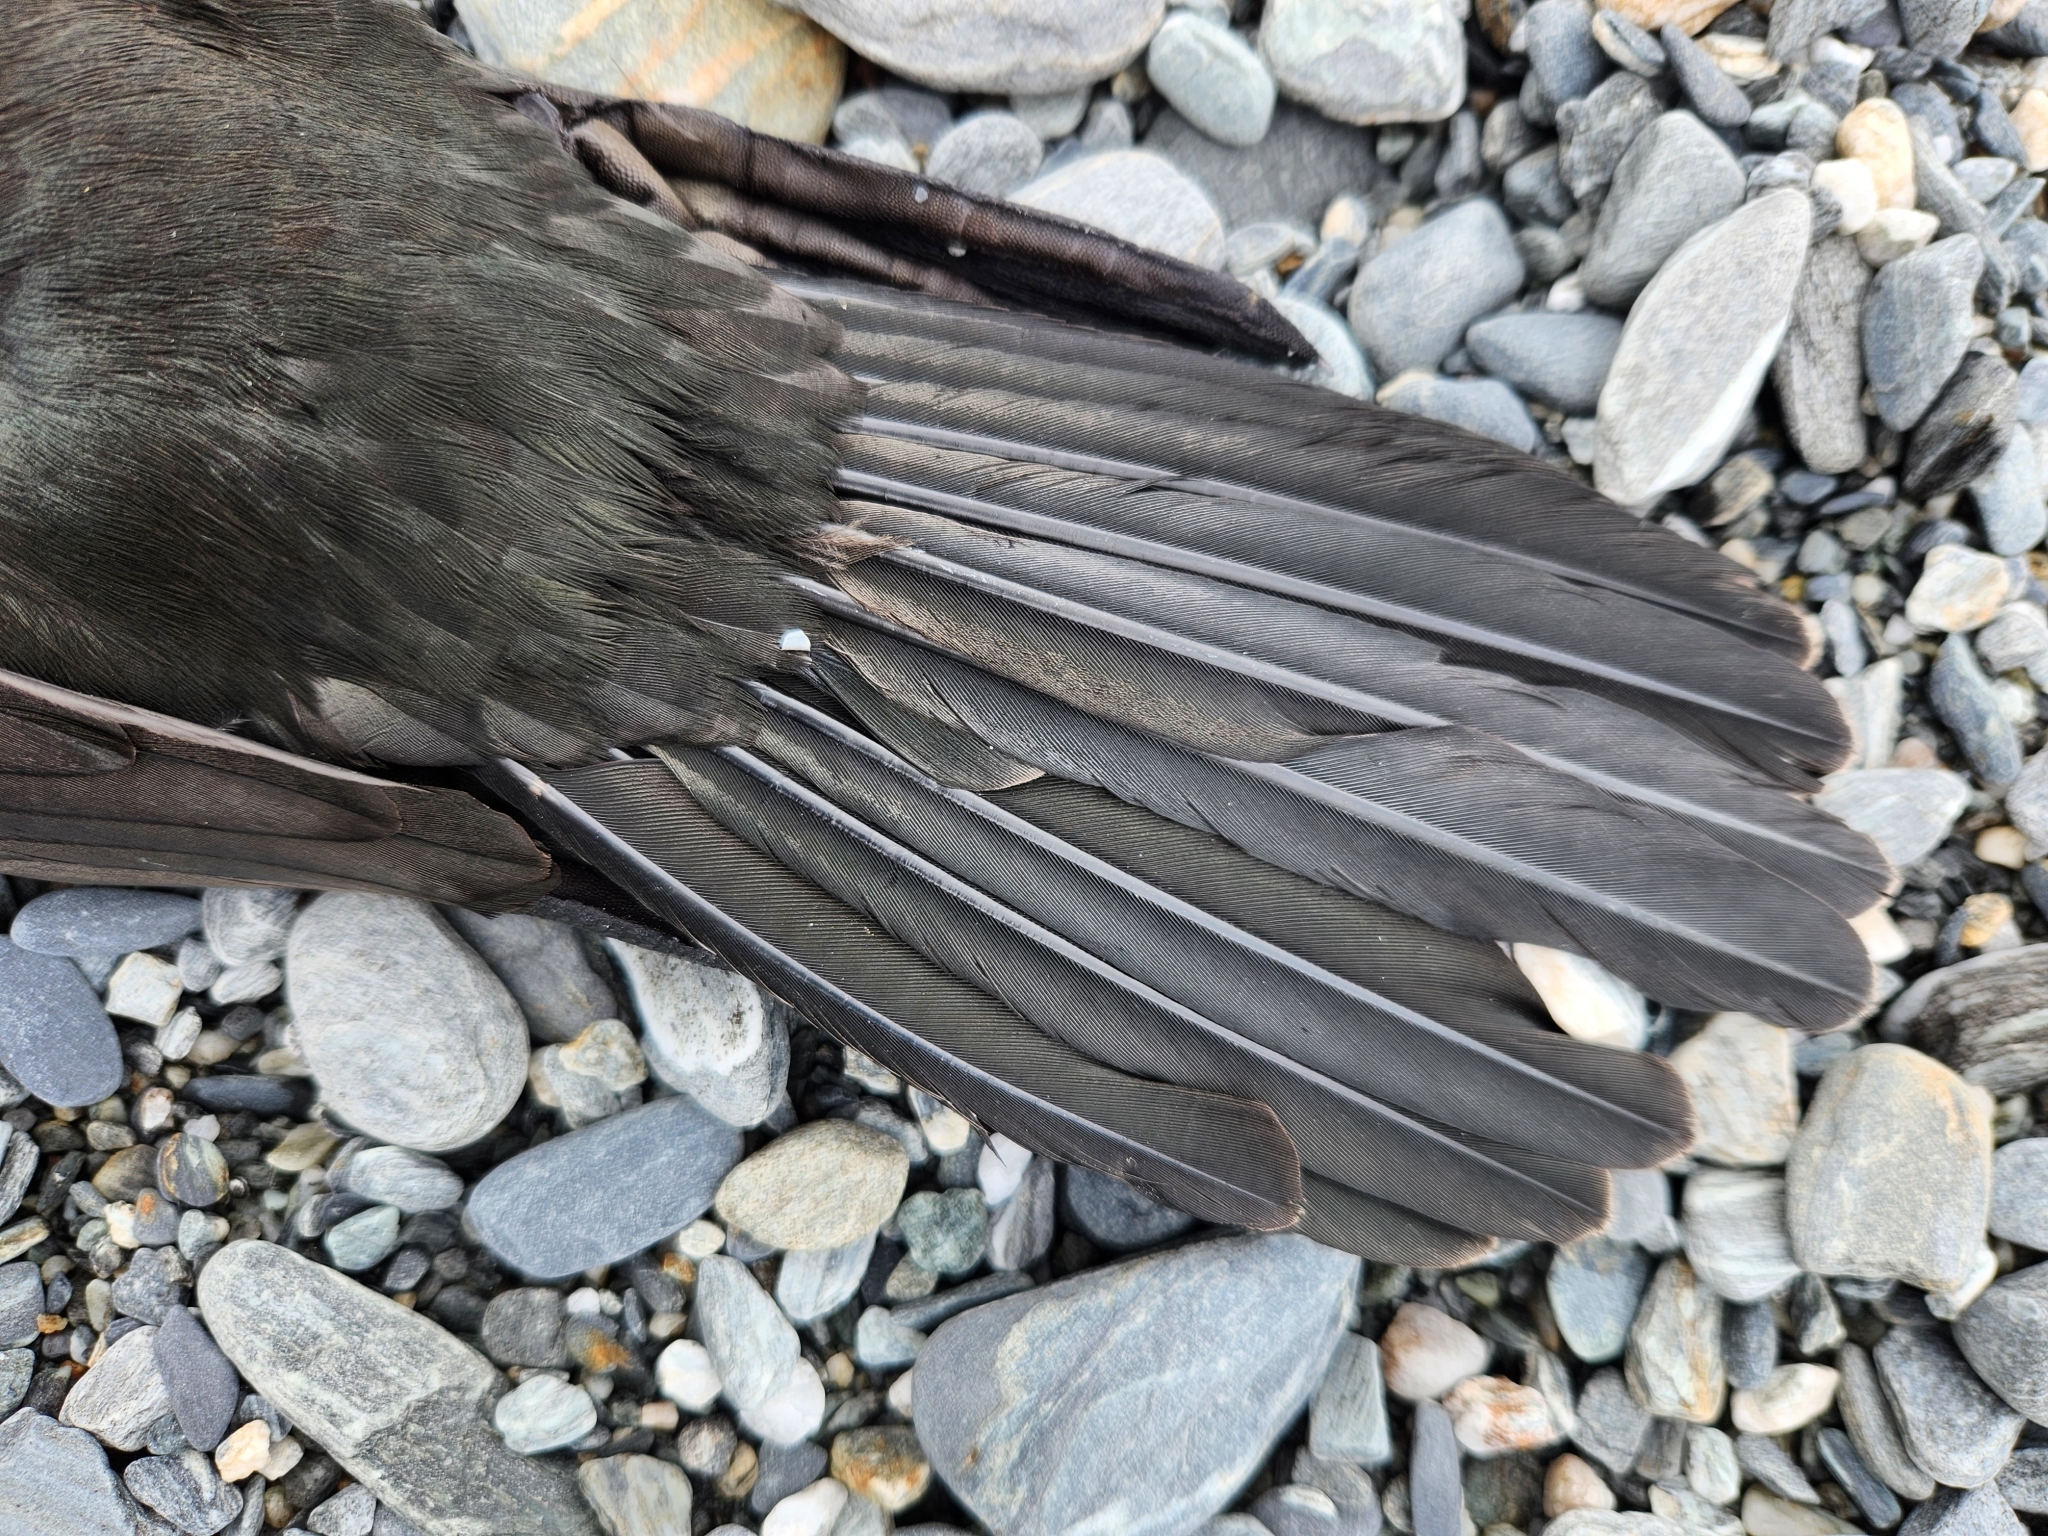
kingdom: Animalia
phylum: Chordata
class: Aves
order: Suliformes
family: Phalacrocoracidae
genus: Phalacrocorax
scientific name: Phalacrocorax sulcirostris
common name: Little black cormorant
